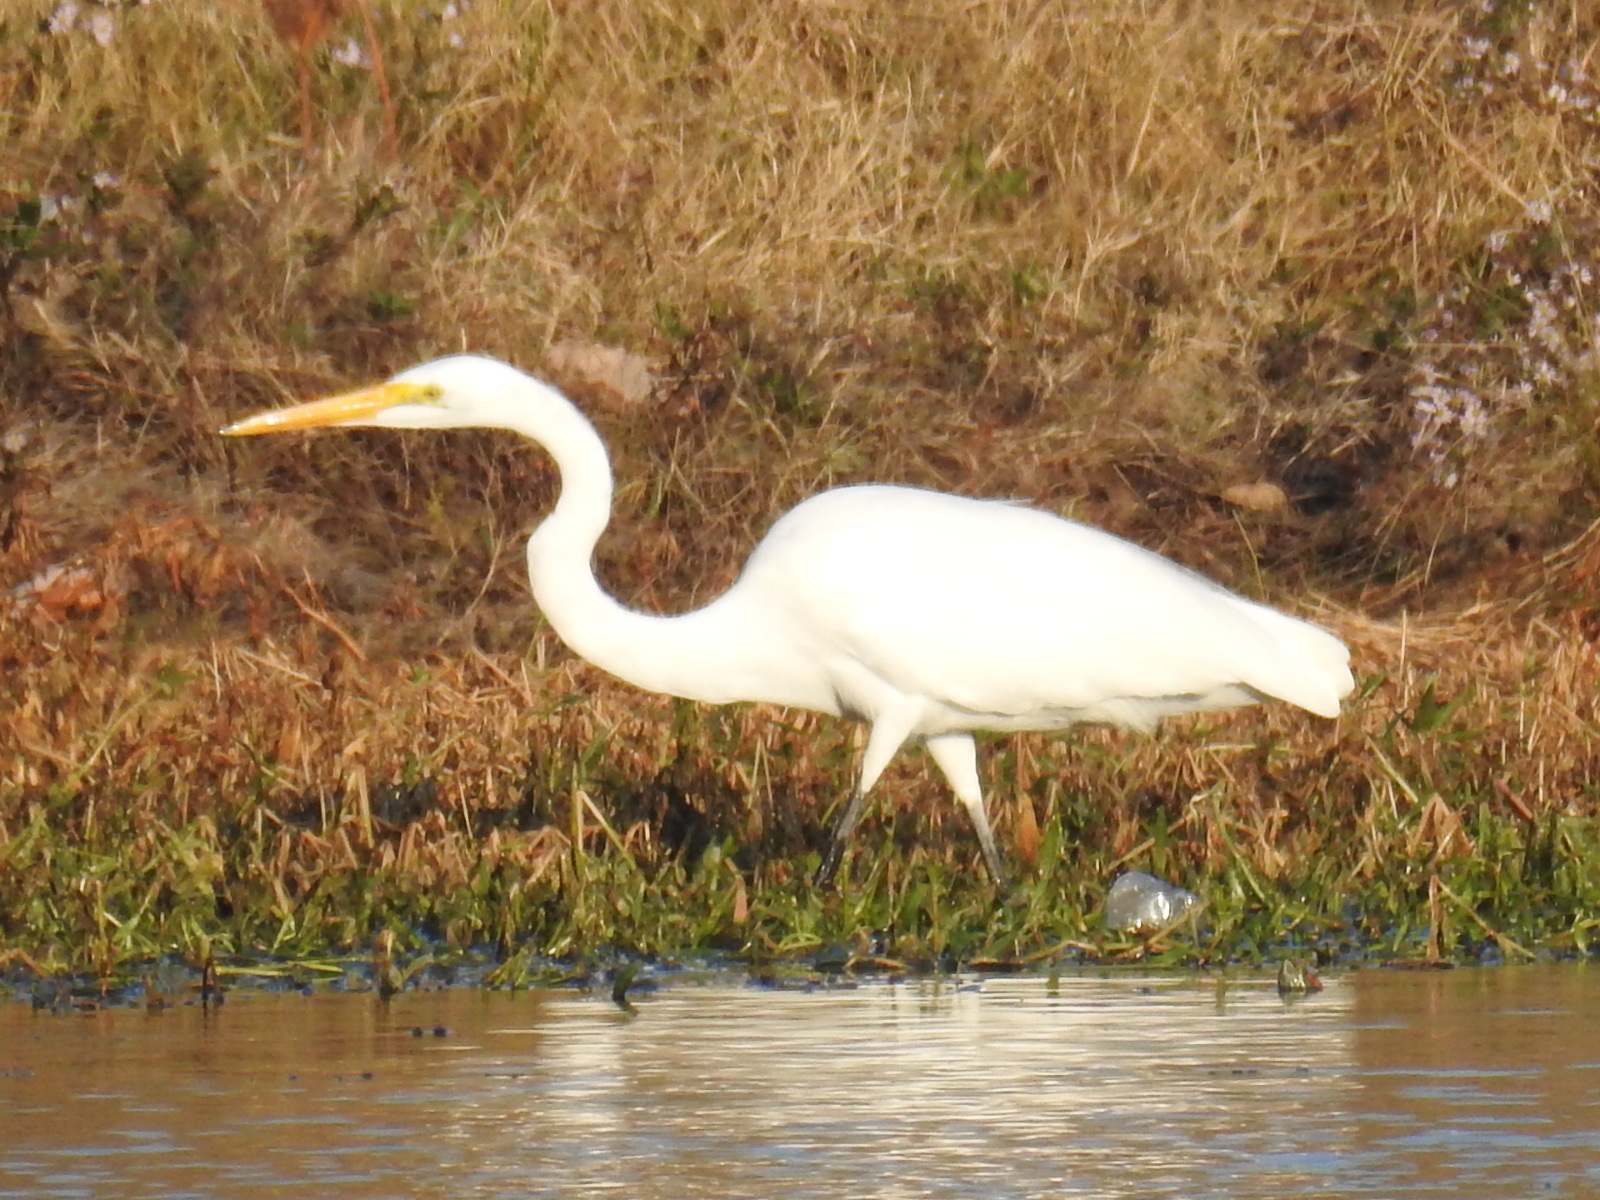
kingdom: Animalia
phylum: Chordata
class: Aves
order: Pelecaniformes
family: Ardeidae
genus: Ardea
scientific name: Ardea alba
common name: Great egret
